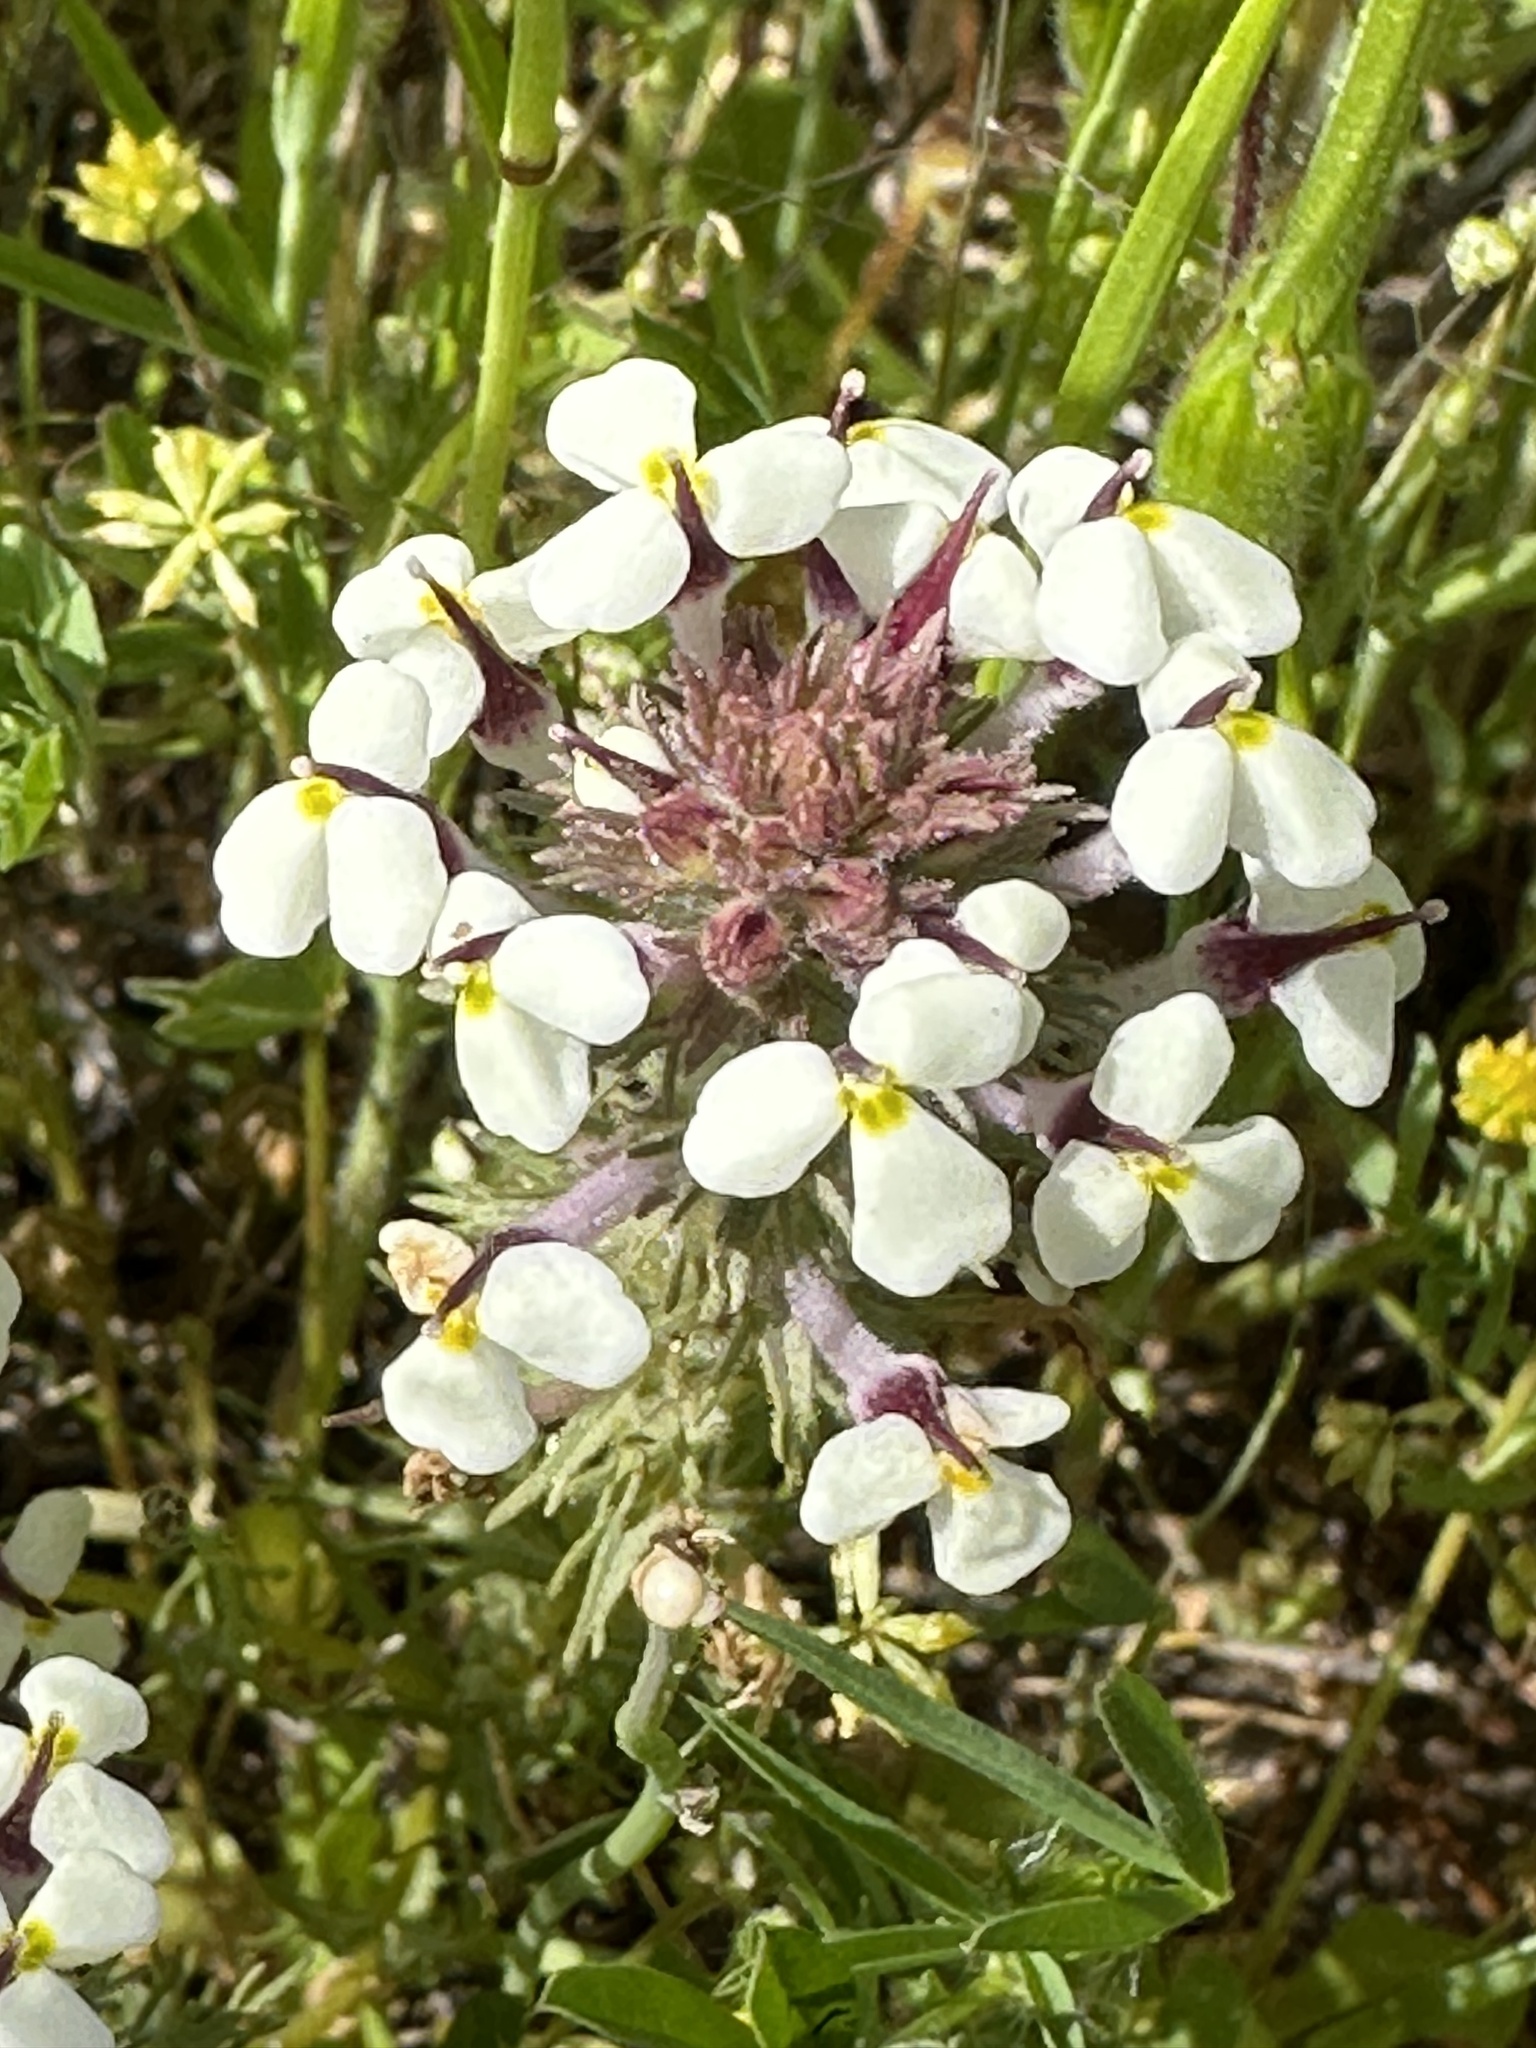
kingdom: Plantae
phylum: Tracheophyta
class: Magnoliopsida
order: Lamiales
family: Orobanchaceae
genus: Triphysaria
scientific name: Triphysaria eriantha
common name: Johnny-tuck
